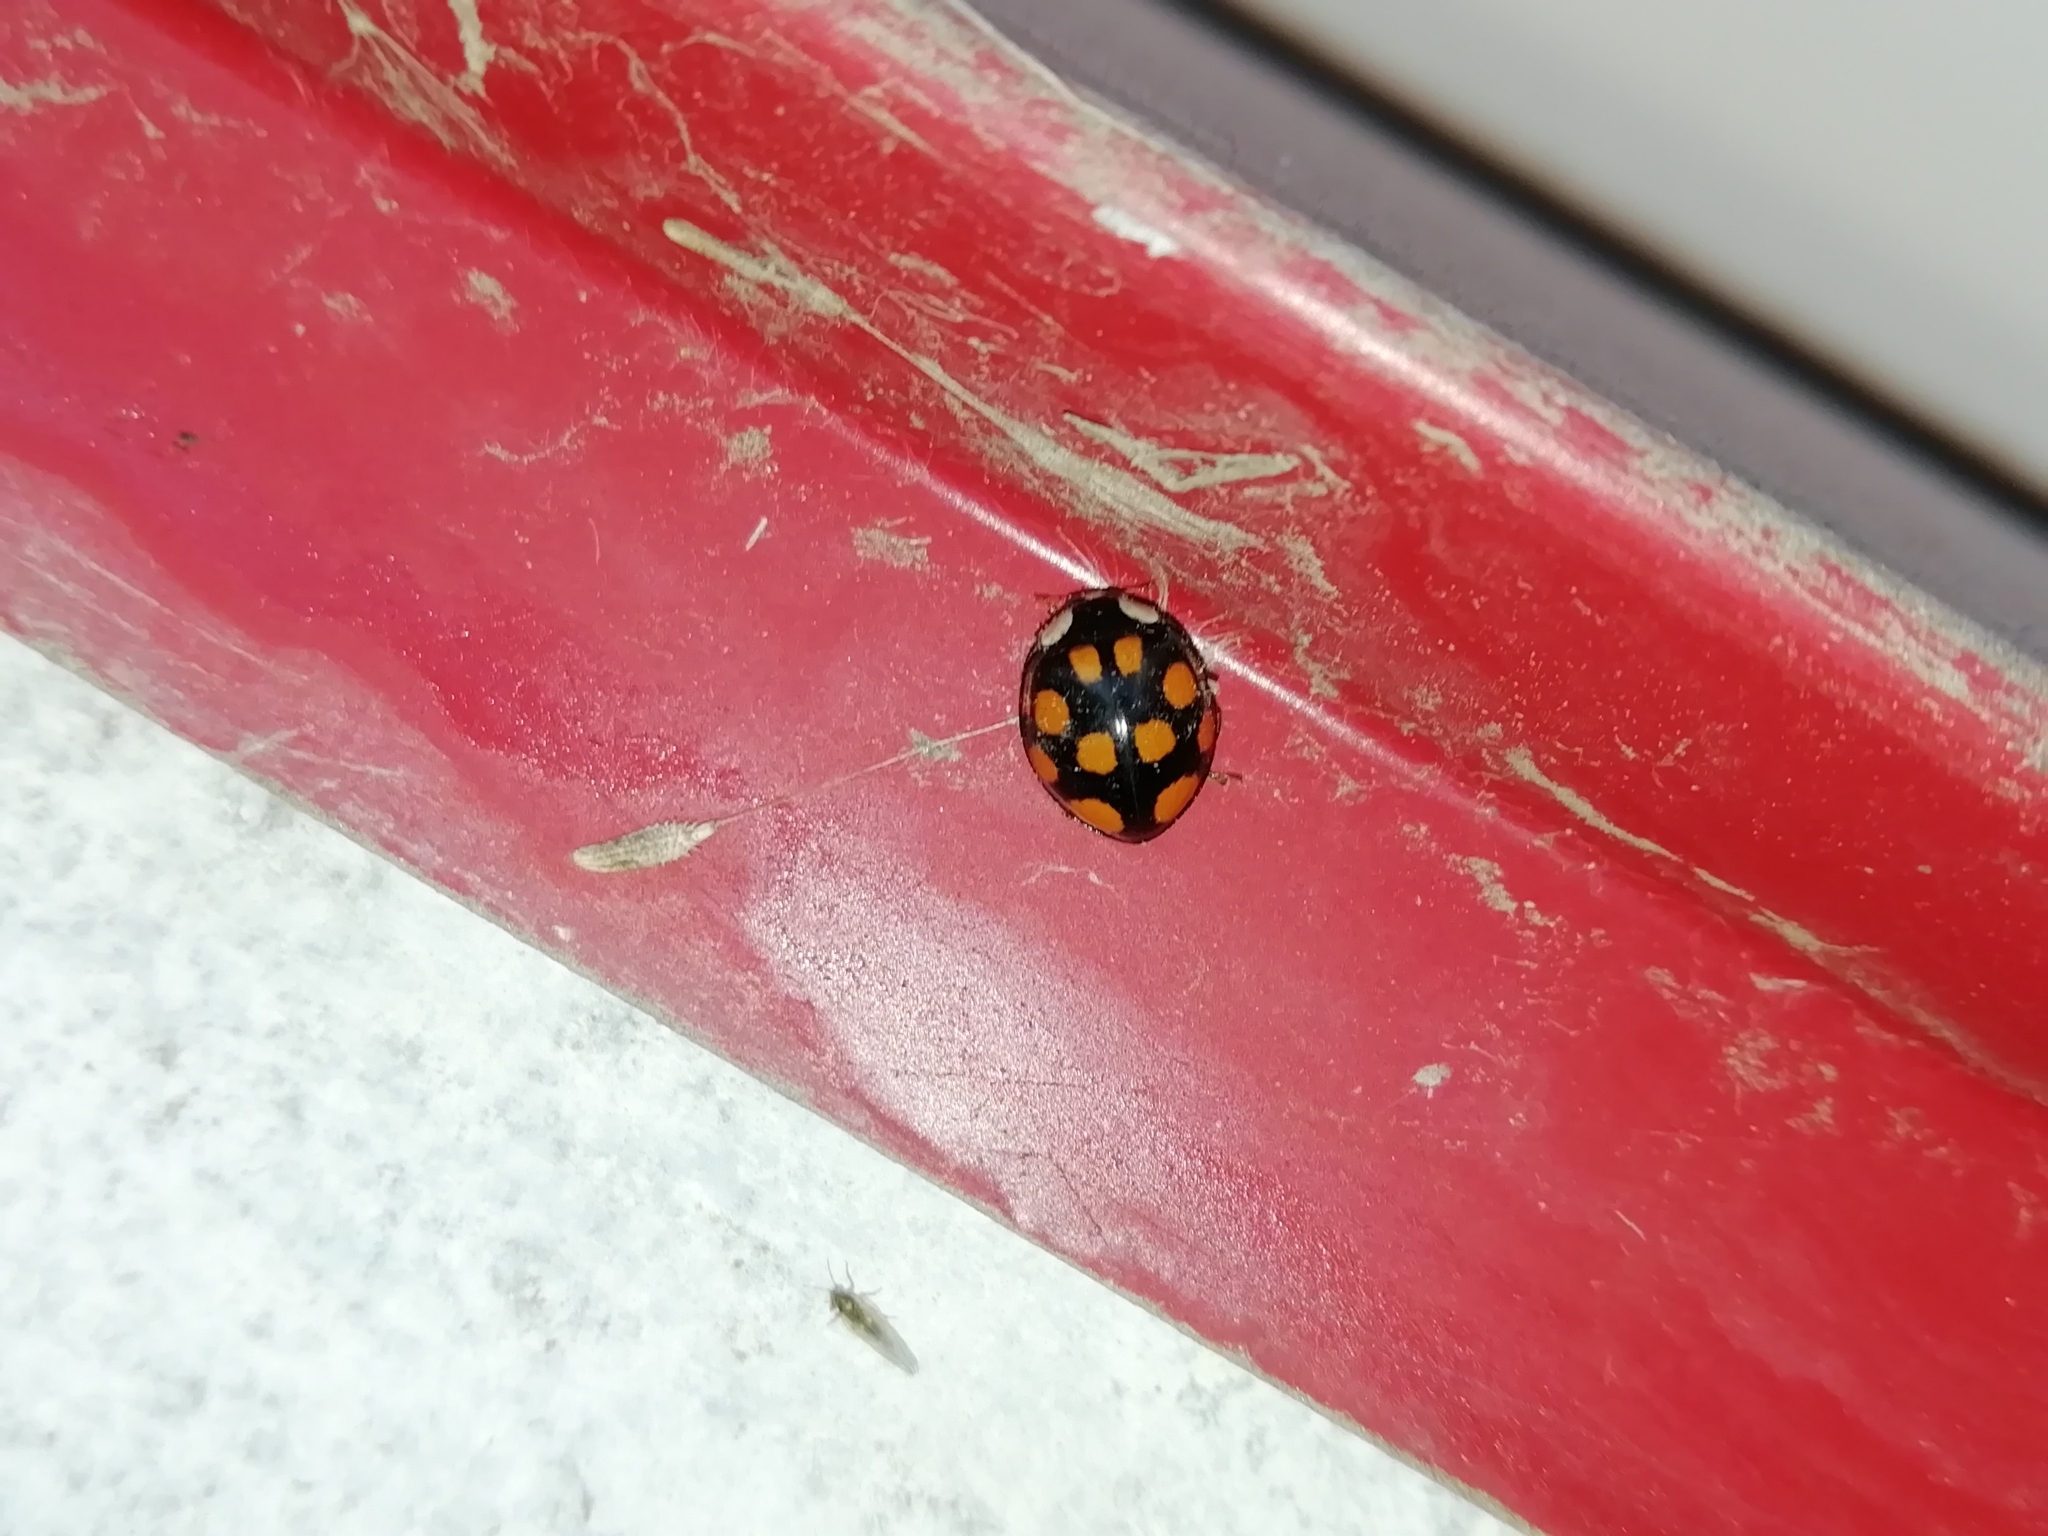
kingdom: Animalia
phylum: Arthropoda
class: Insecta
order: Coleoptera
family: Coccinellidae
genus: Harmonia
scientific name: Harmonia axyridis
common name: Harlequin ladybird
